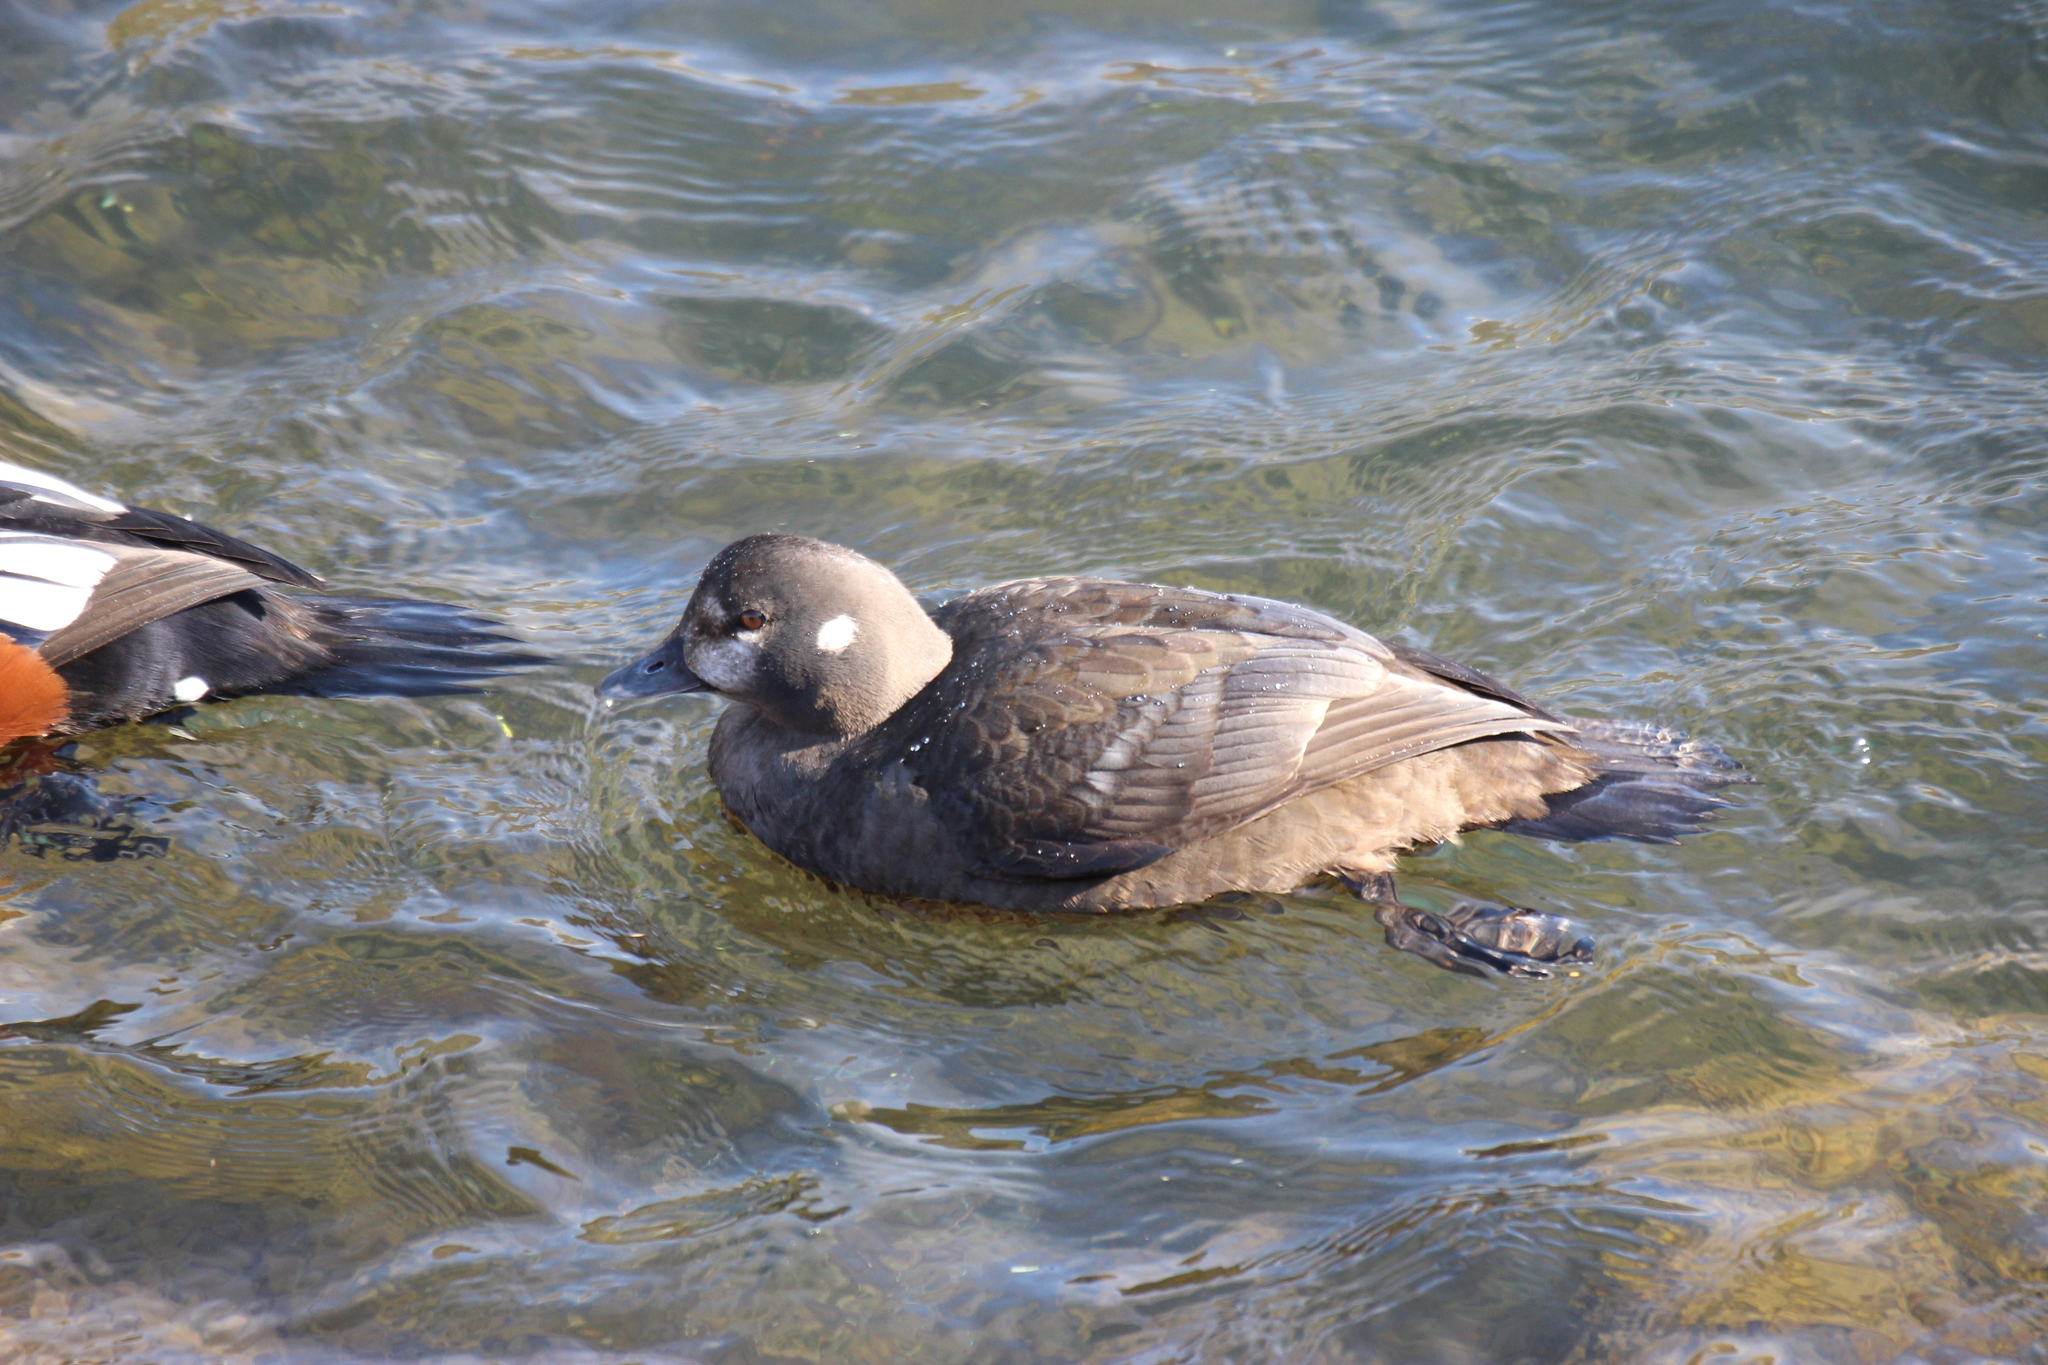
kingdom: Animalia
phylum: Chordata
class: Aves
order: Anseriformes
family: Anatidae
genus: Histrionicus
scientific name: Histrionicus histrionicus
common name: Harlequin duck
